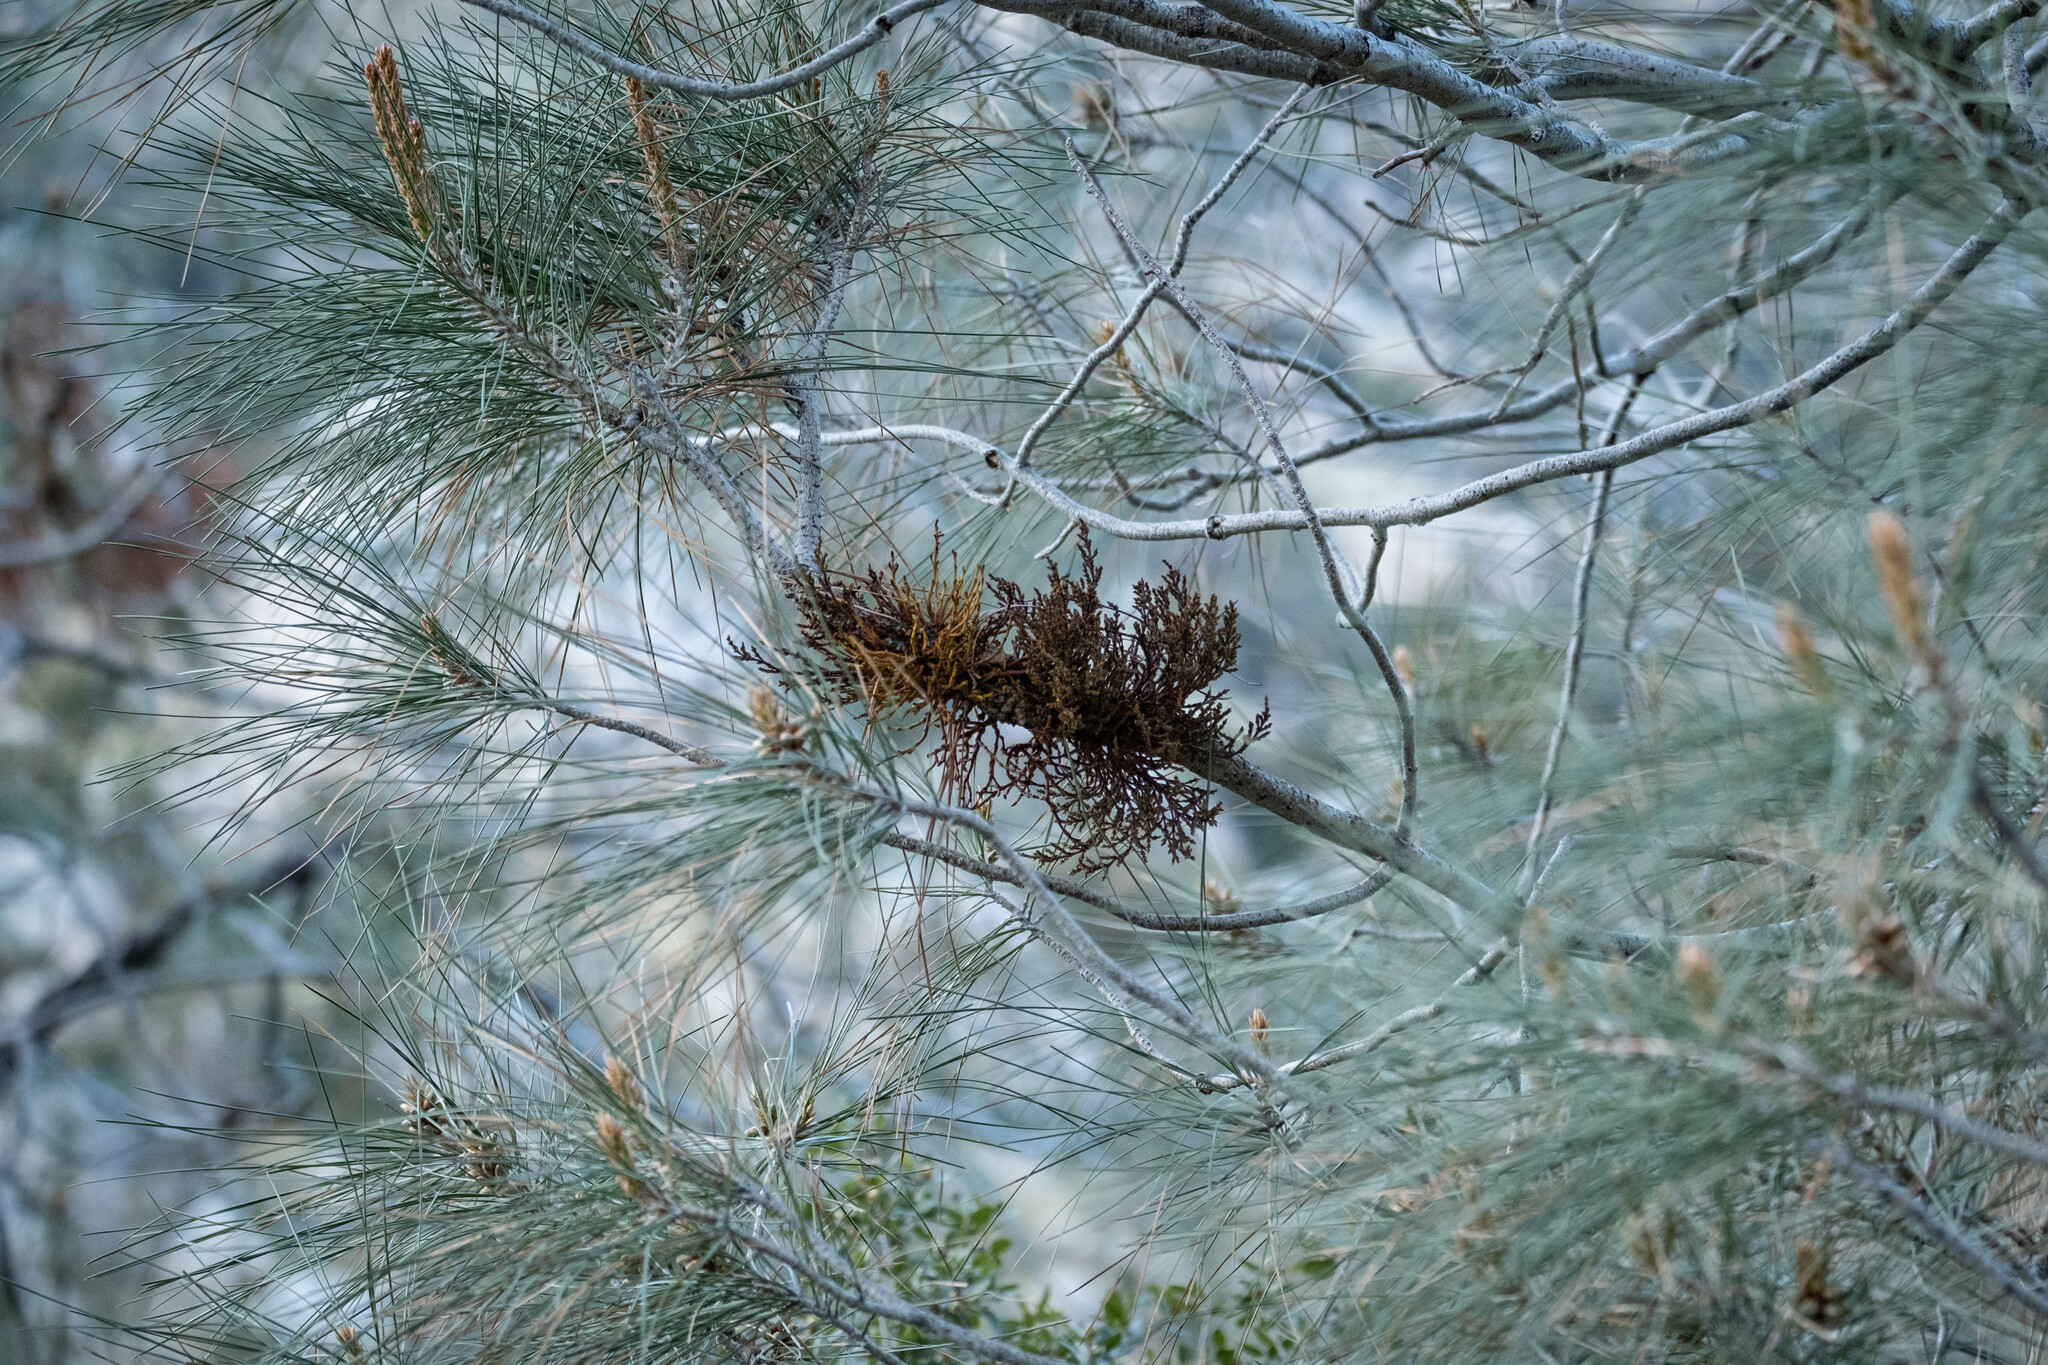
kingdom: Plantae
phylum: Tracheophyta
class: Magnoliopsida
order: Santalales
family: Viscaceae
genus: Arceuthobium
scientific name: Arceuthobium campylopodum
